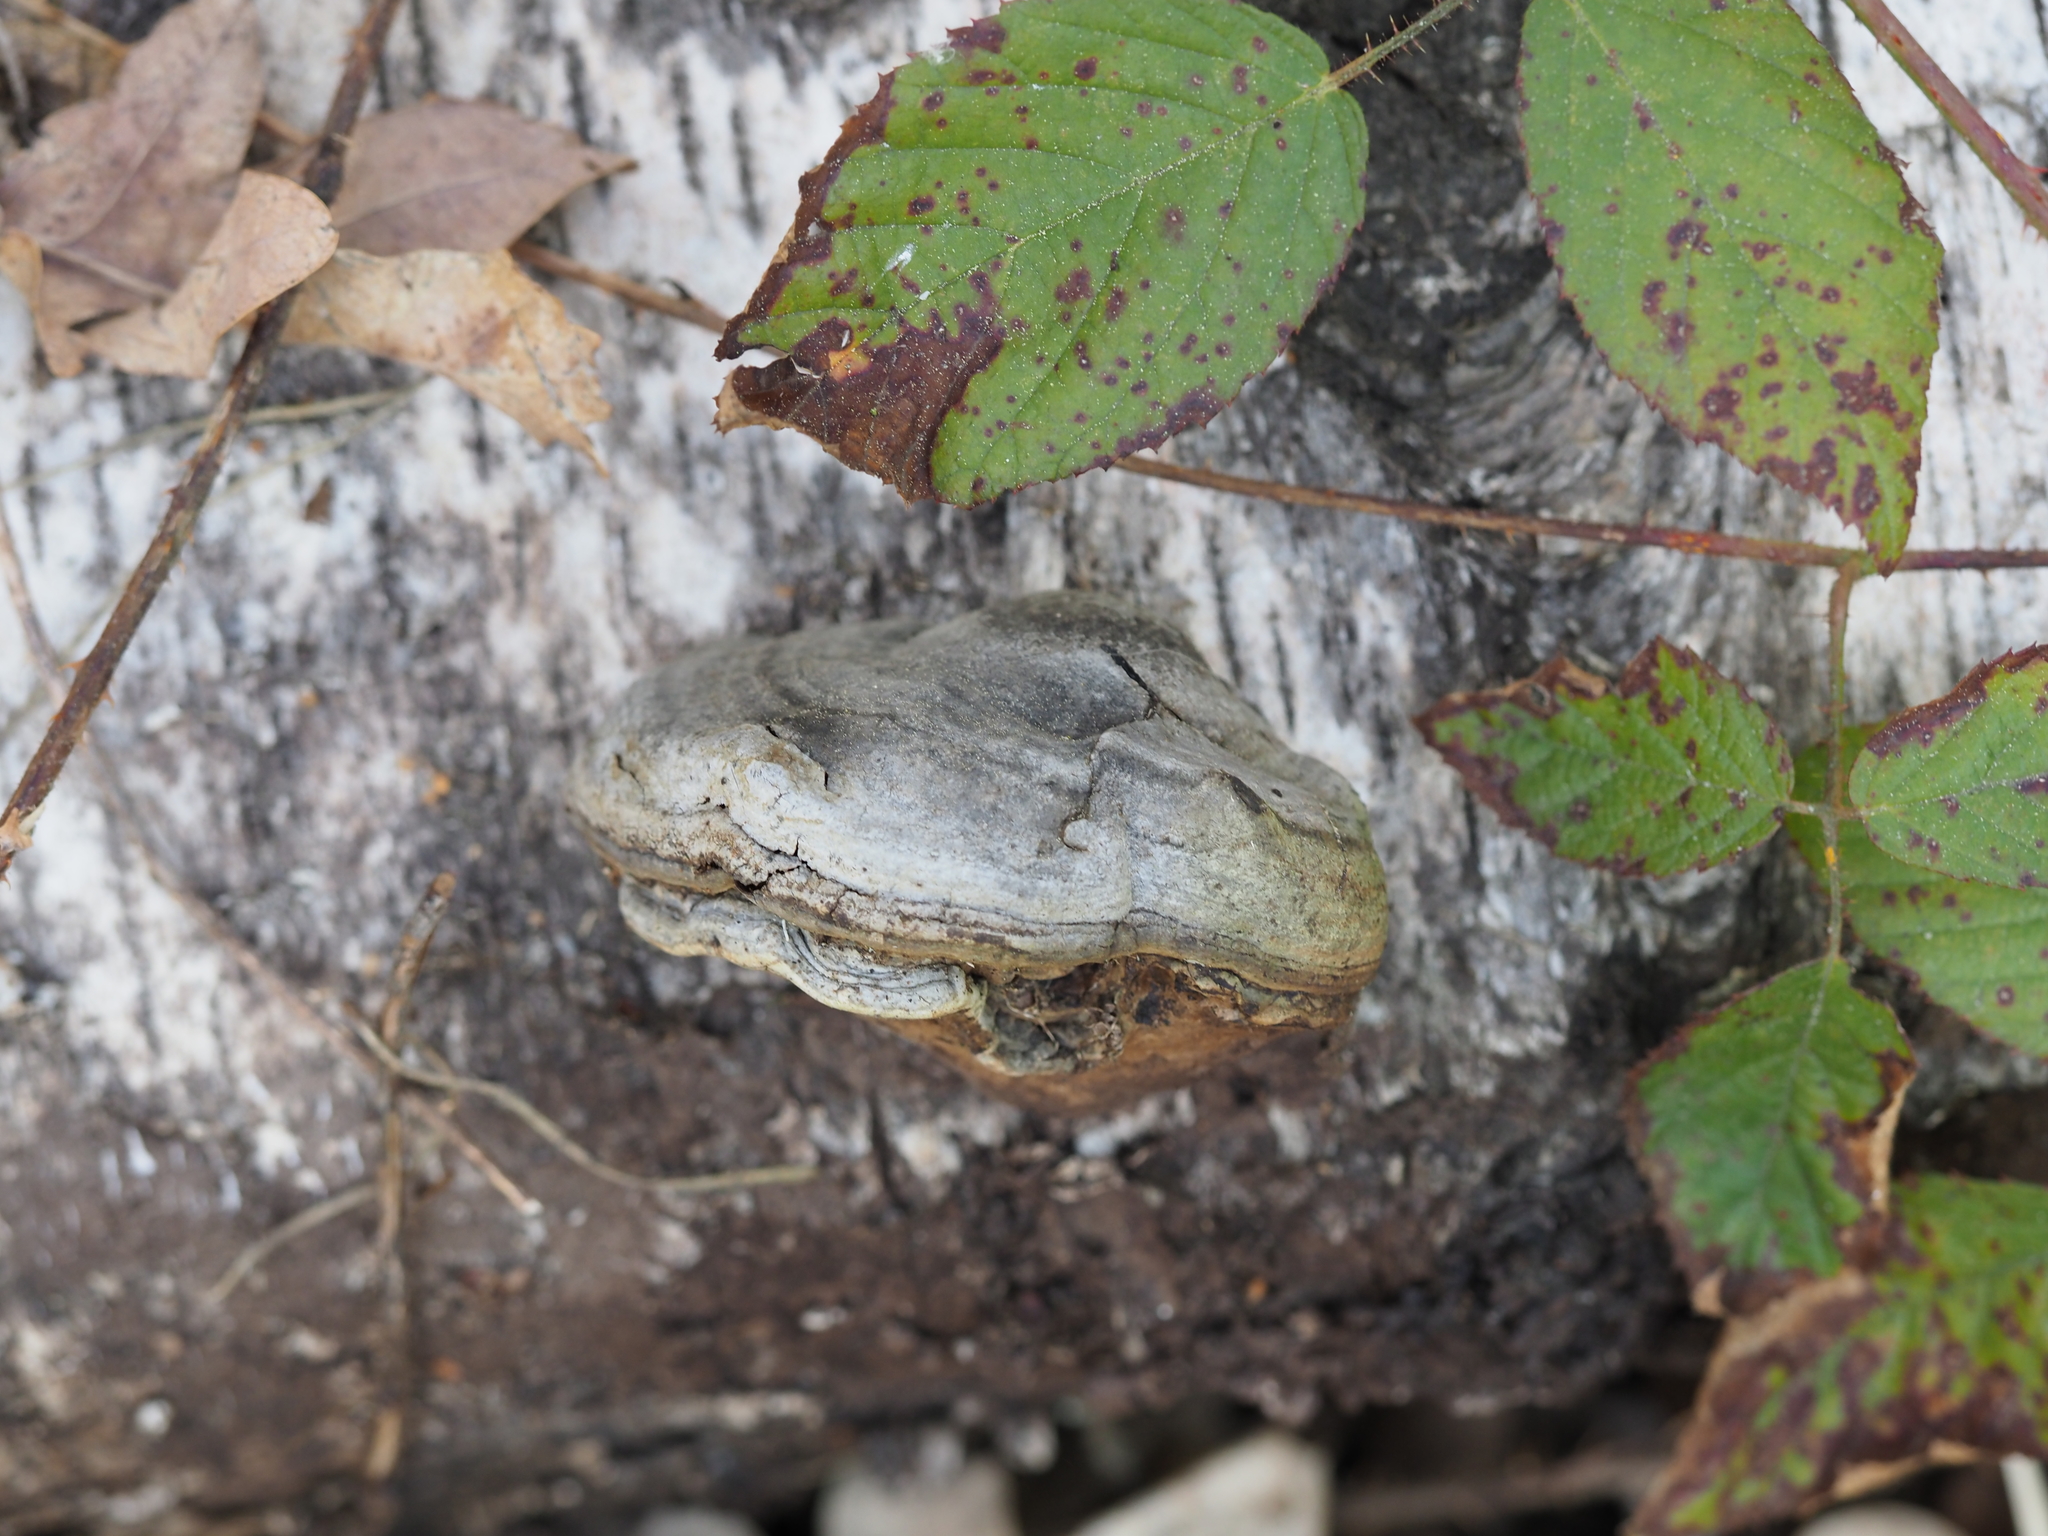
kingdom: Fungi
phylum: Basidiomycota
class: Agaricomycetes
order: Polyporales
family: Polyporaceae
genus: Fomes
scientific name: Fomes fomentarius
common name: Hoof fungus
